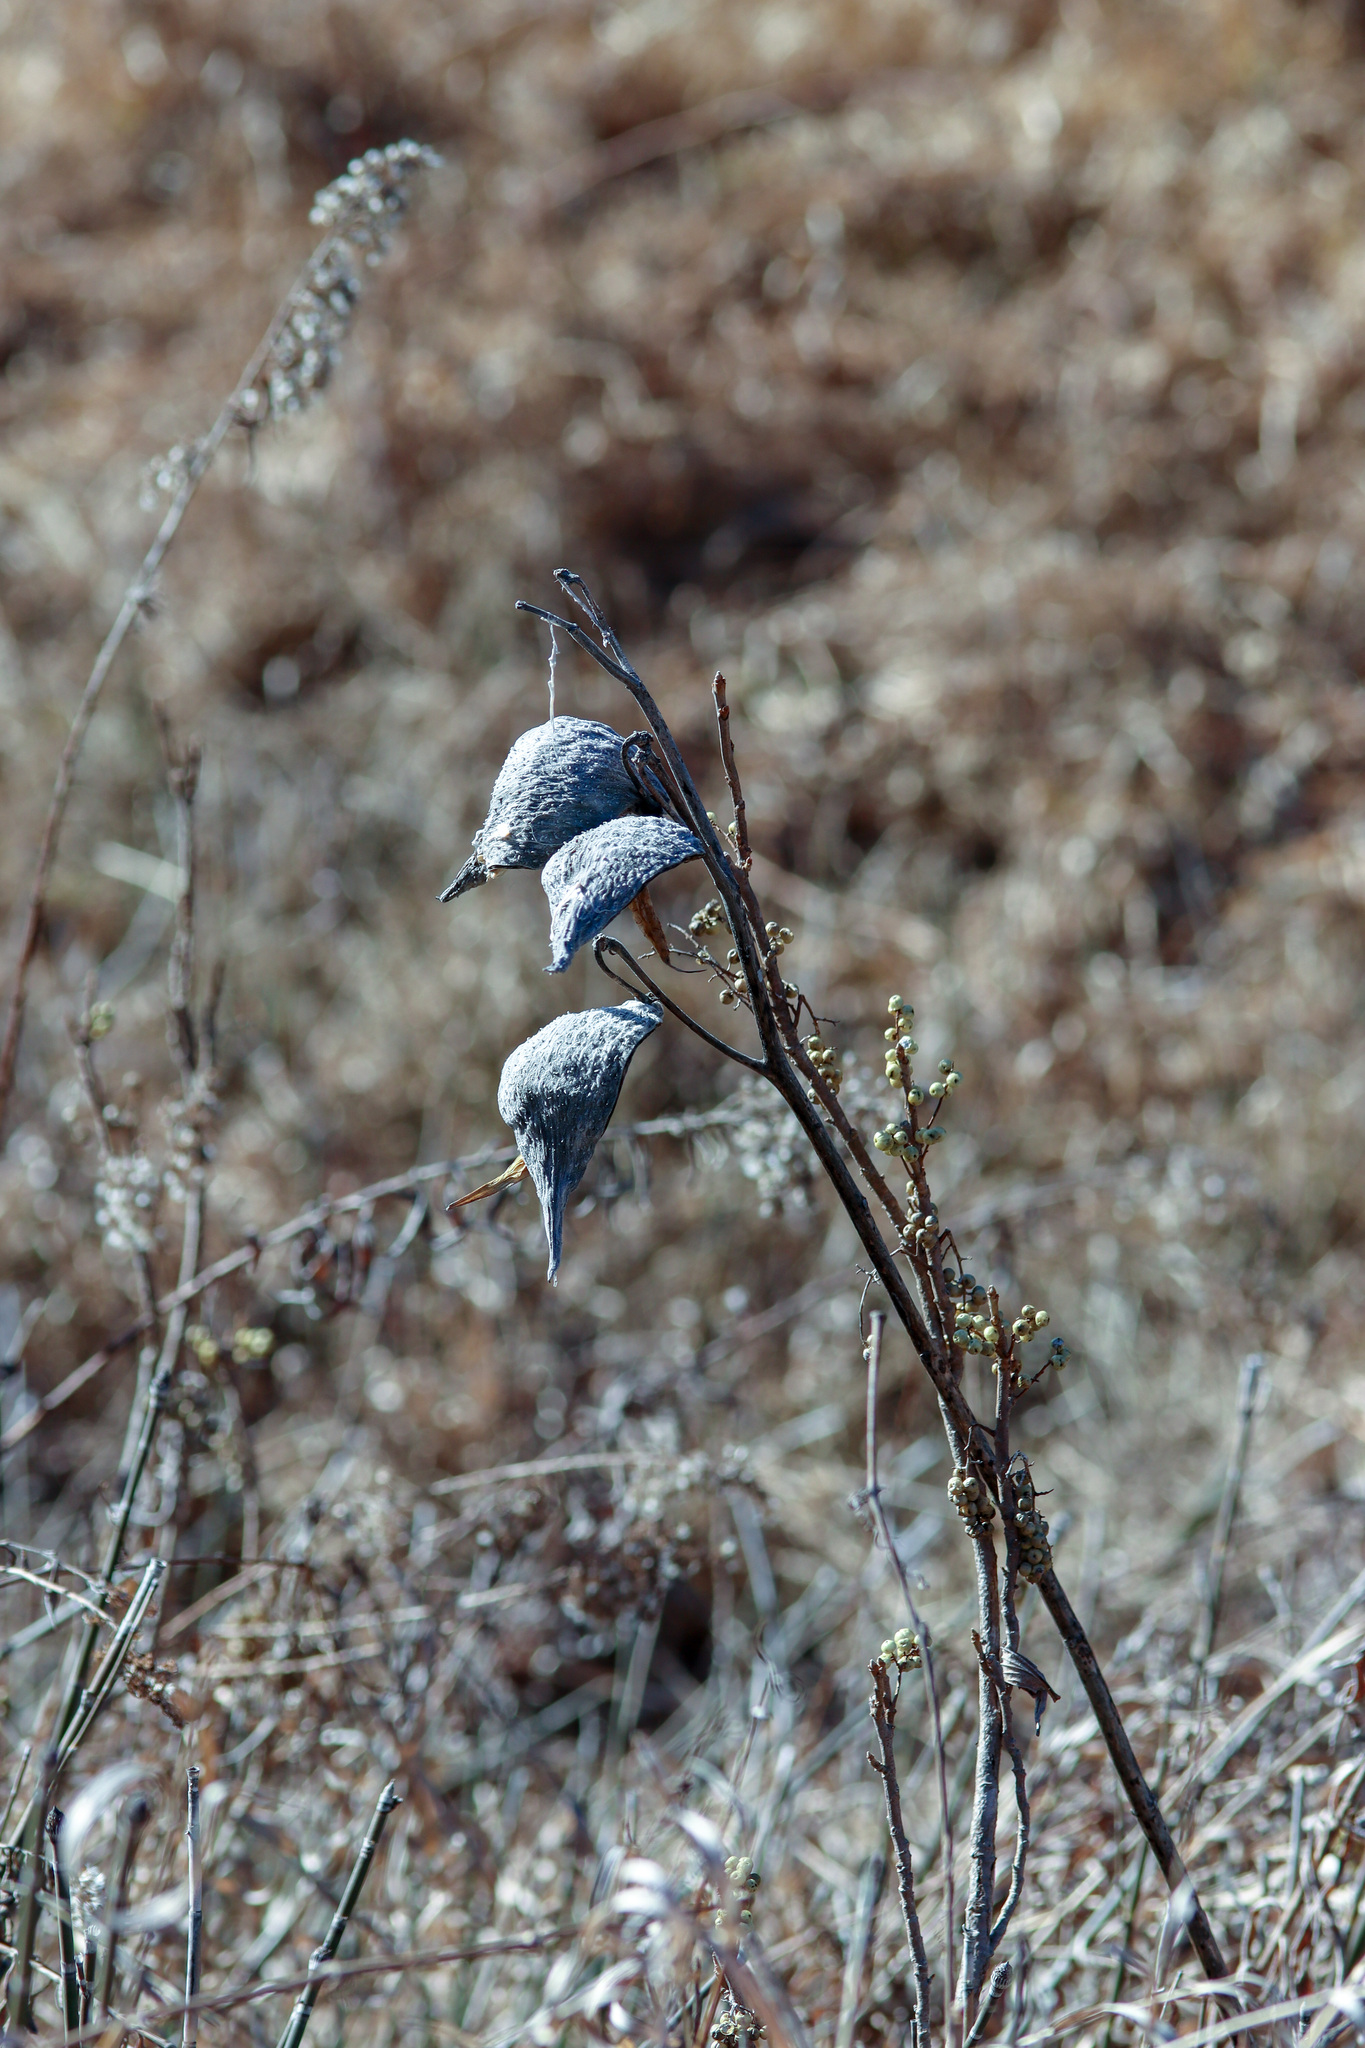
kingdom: Plantae
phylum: Tracheophyta
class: Magnoliopsida
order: Gentianales
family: Apocynaceae
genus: Asclepias
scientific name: Asclepias syriaca
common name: Common milkweed
